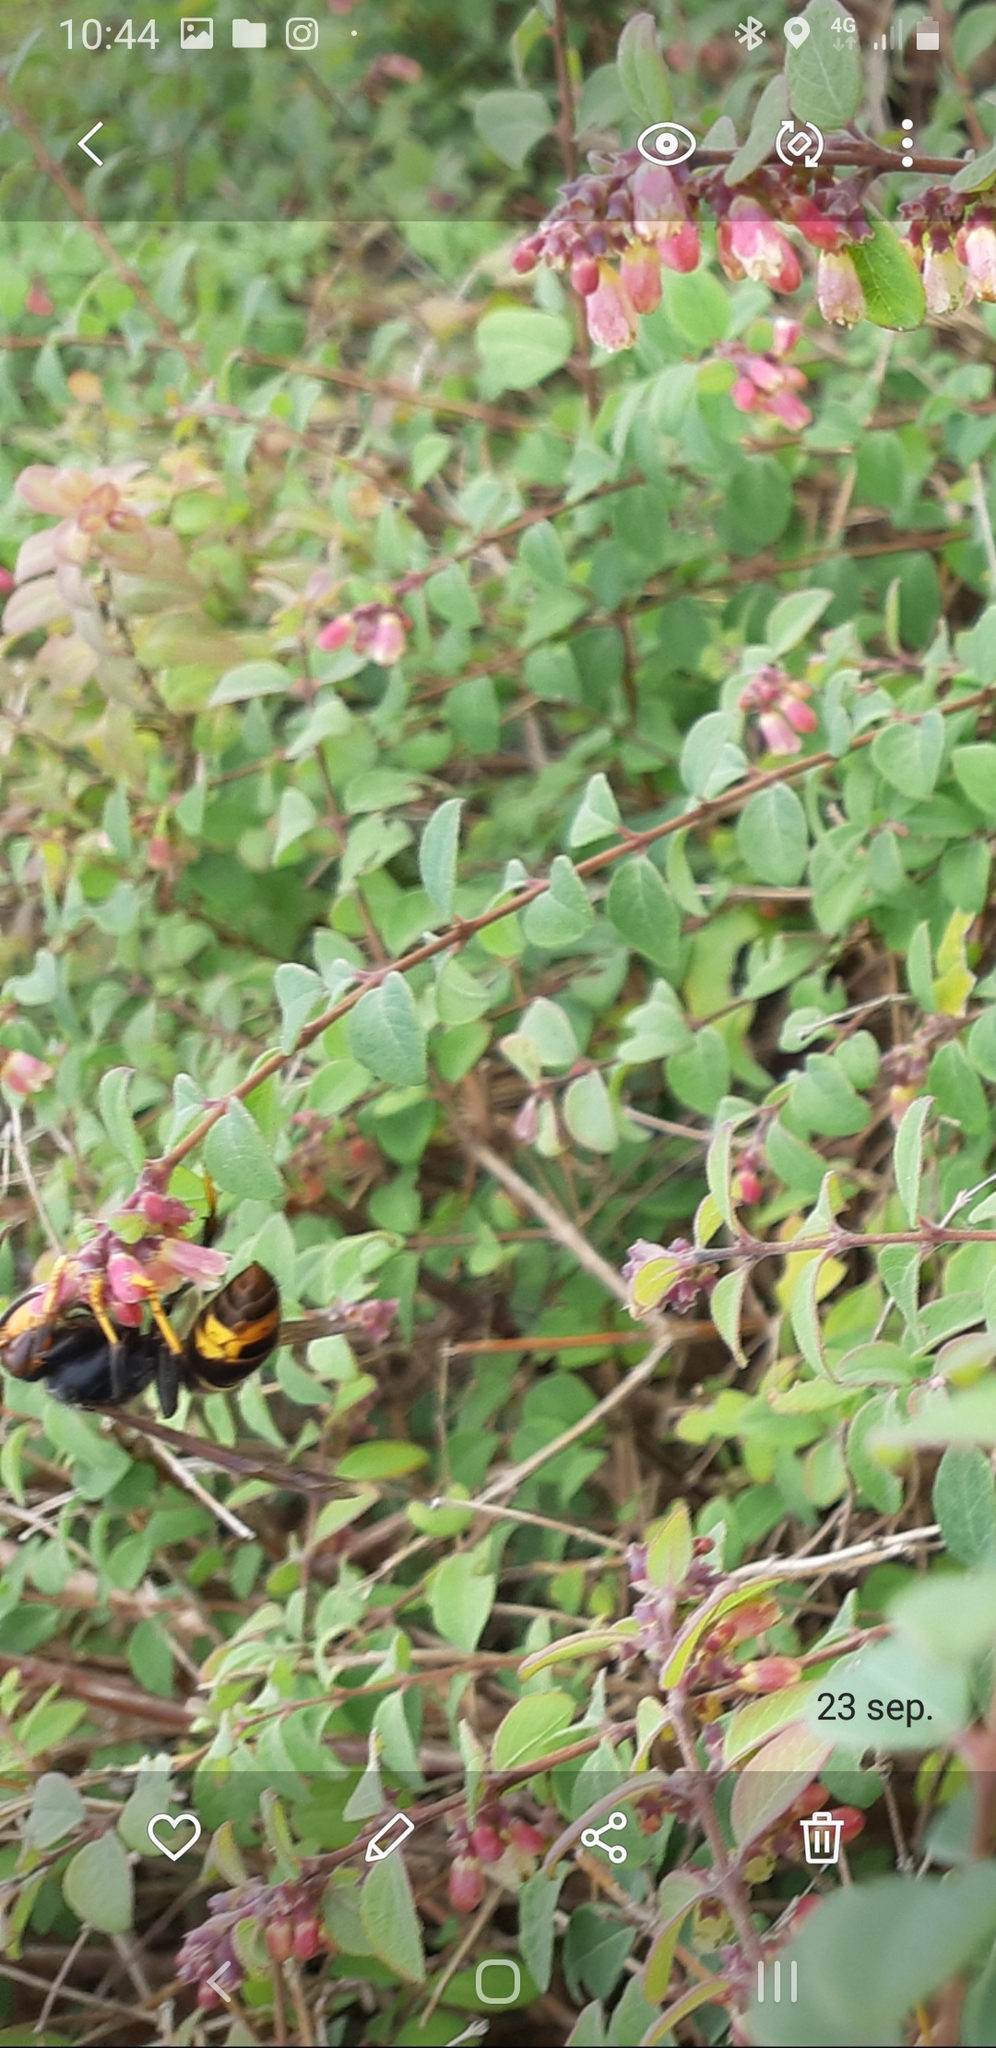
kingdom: Animalia
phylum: Arthropoda
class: Insecta
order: Hymenoptera
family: Vespidae
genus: Vespa
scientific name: Vespa velutina
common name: Asian hornet
